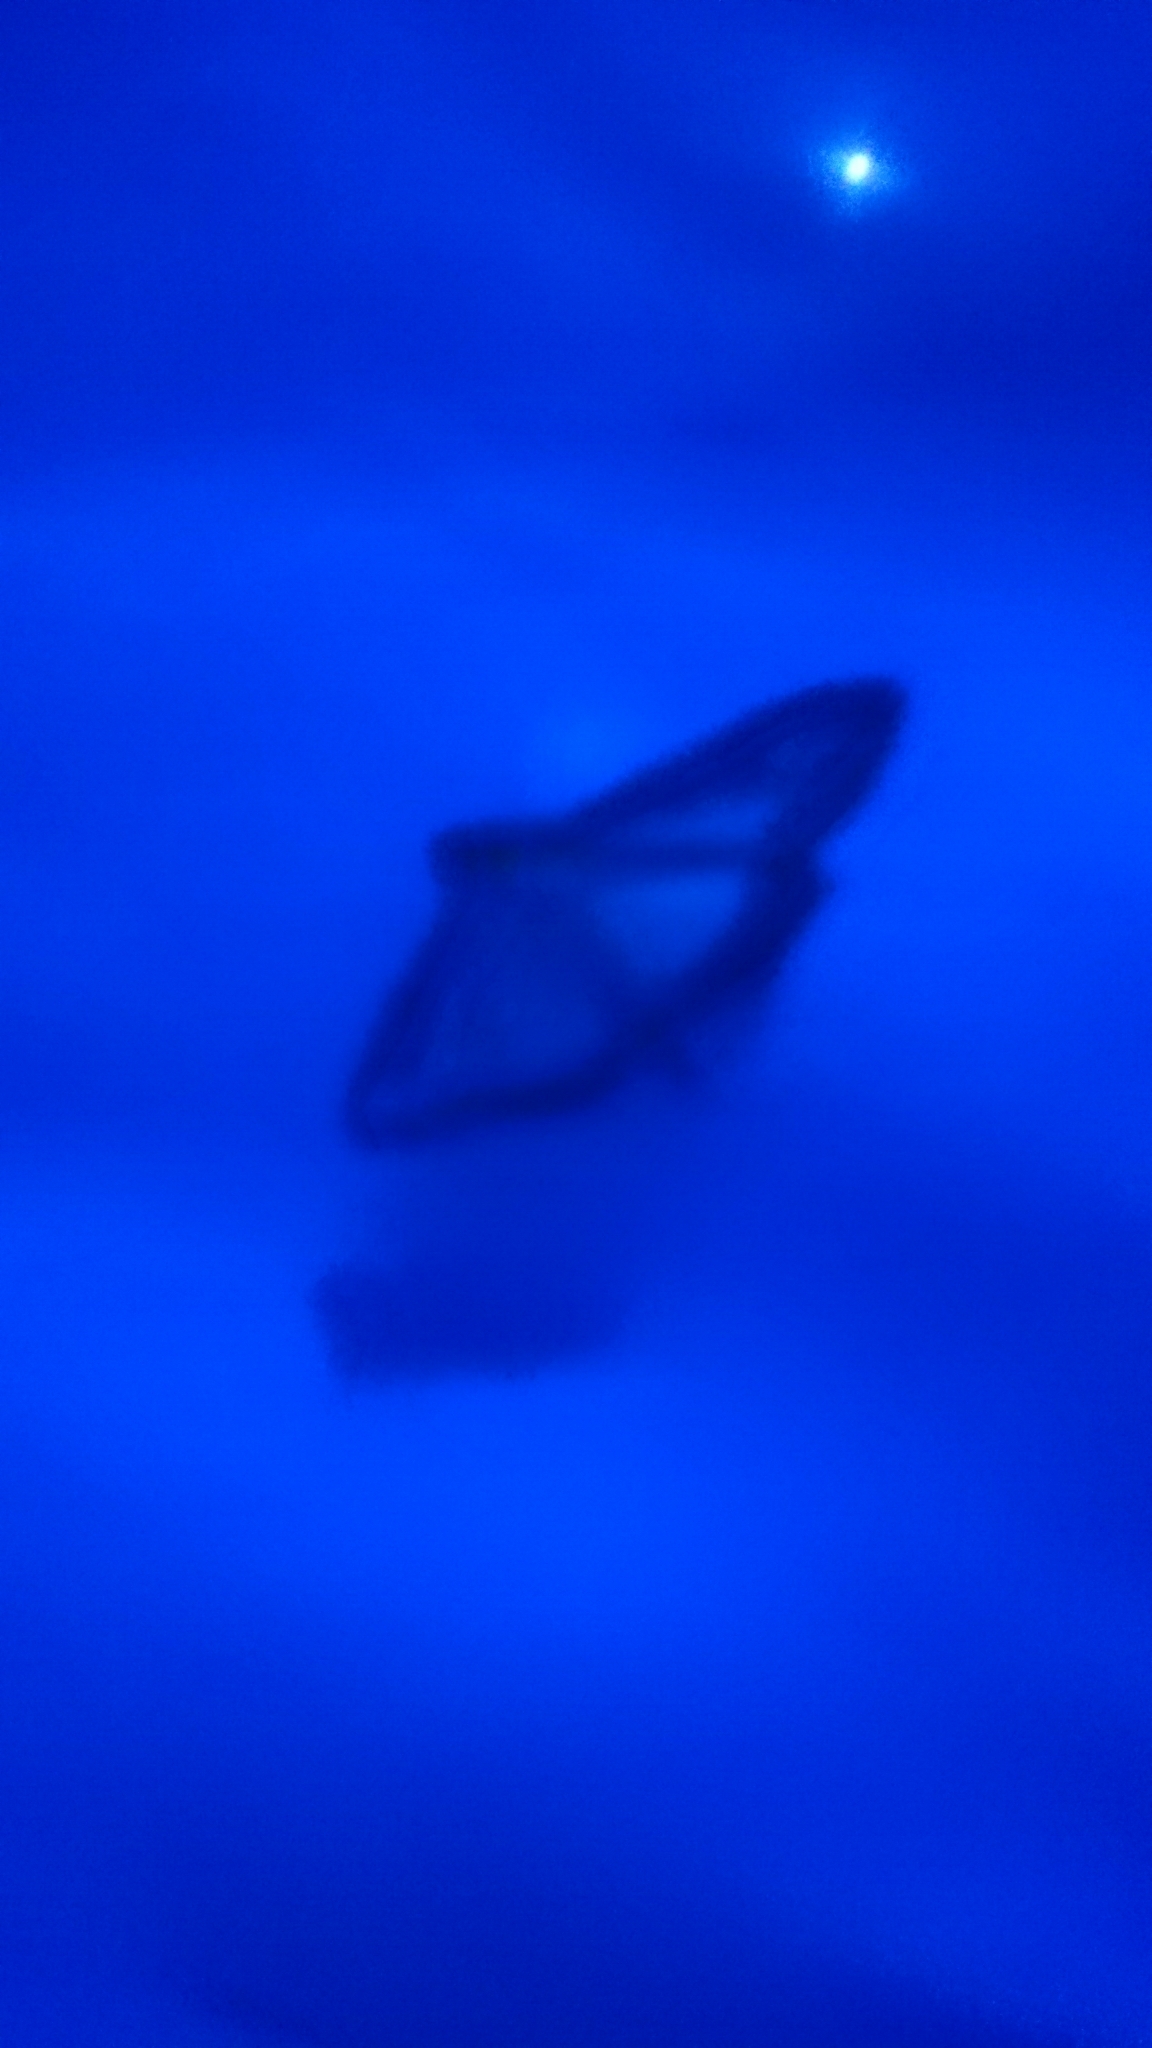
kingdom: Animalia
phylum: Arthropoda
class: Insecta
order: Lepidoptera
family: Crambidae
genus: Cydalima
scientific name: Cydalima perspectalis
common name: Box tree moth
